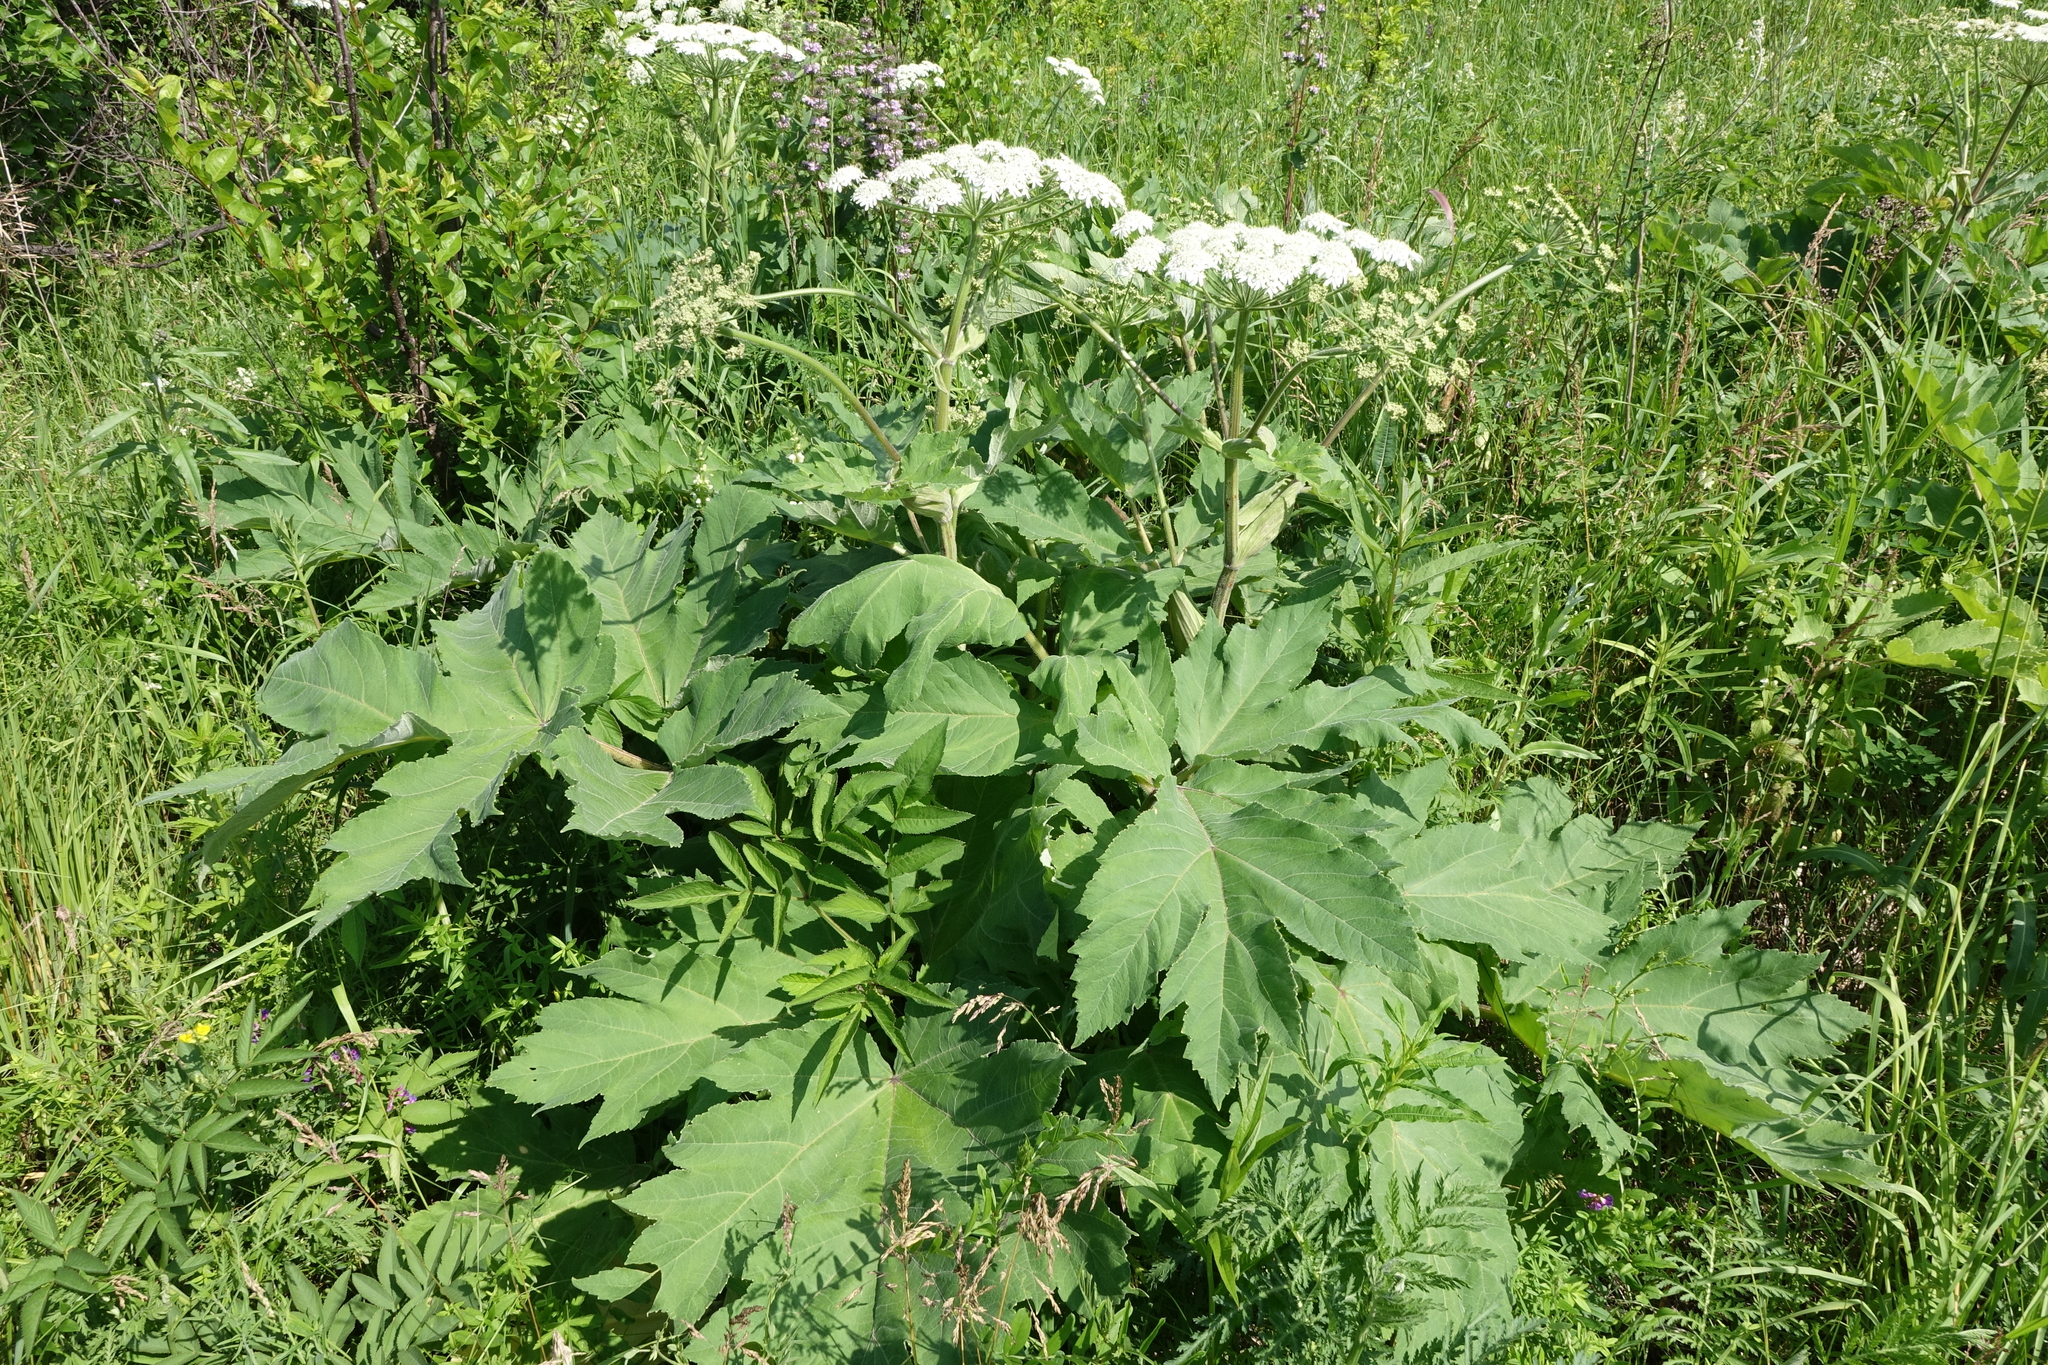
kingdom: Plantae
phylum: Tracheophyta
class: Magnoliopsida
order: Apiales
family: Apiaceae
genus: Heracleum
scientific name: Heracleum dissectum
